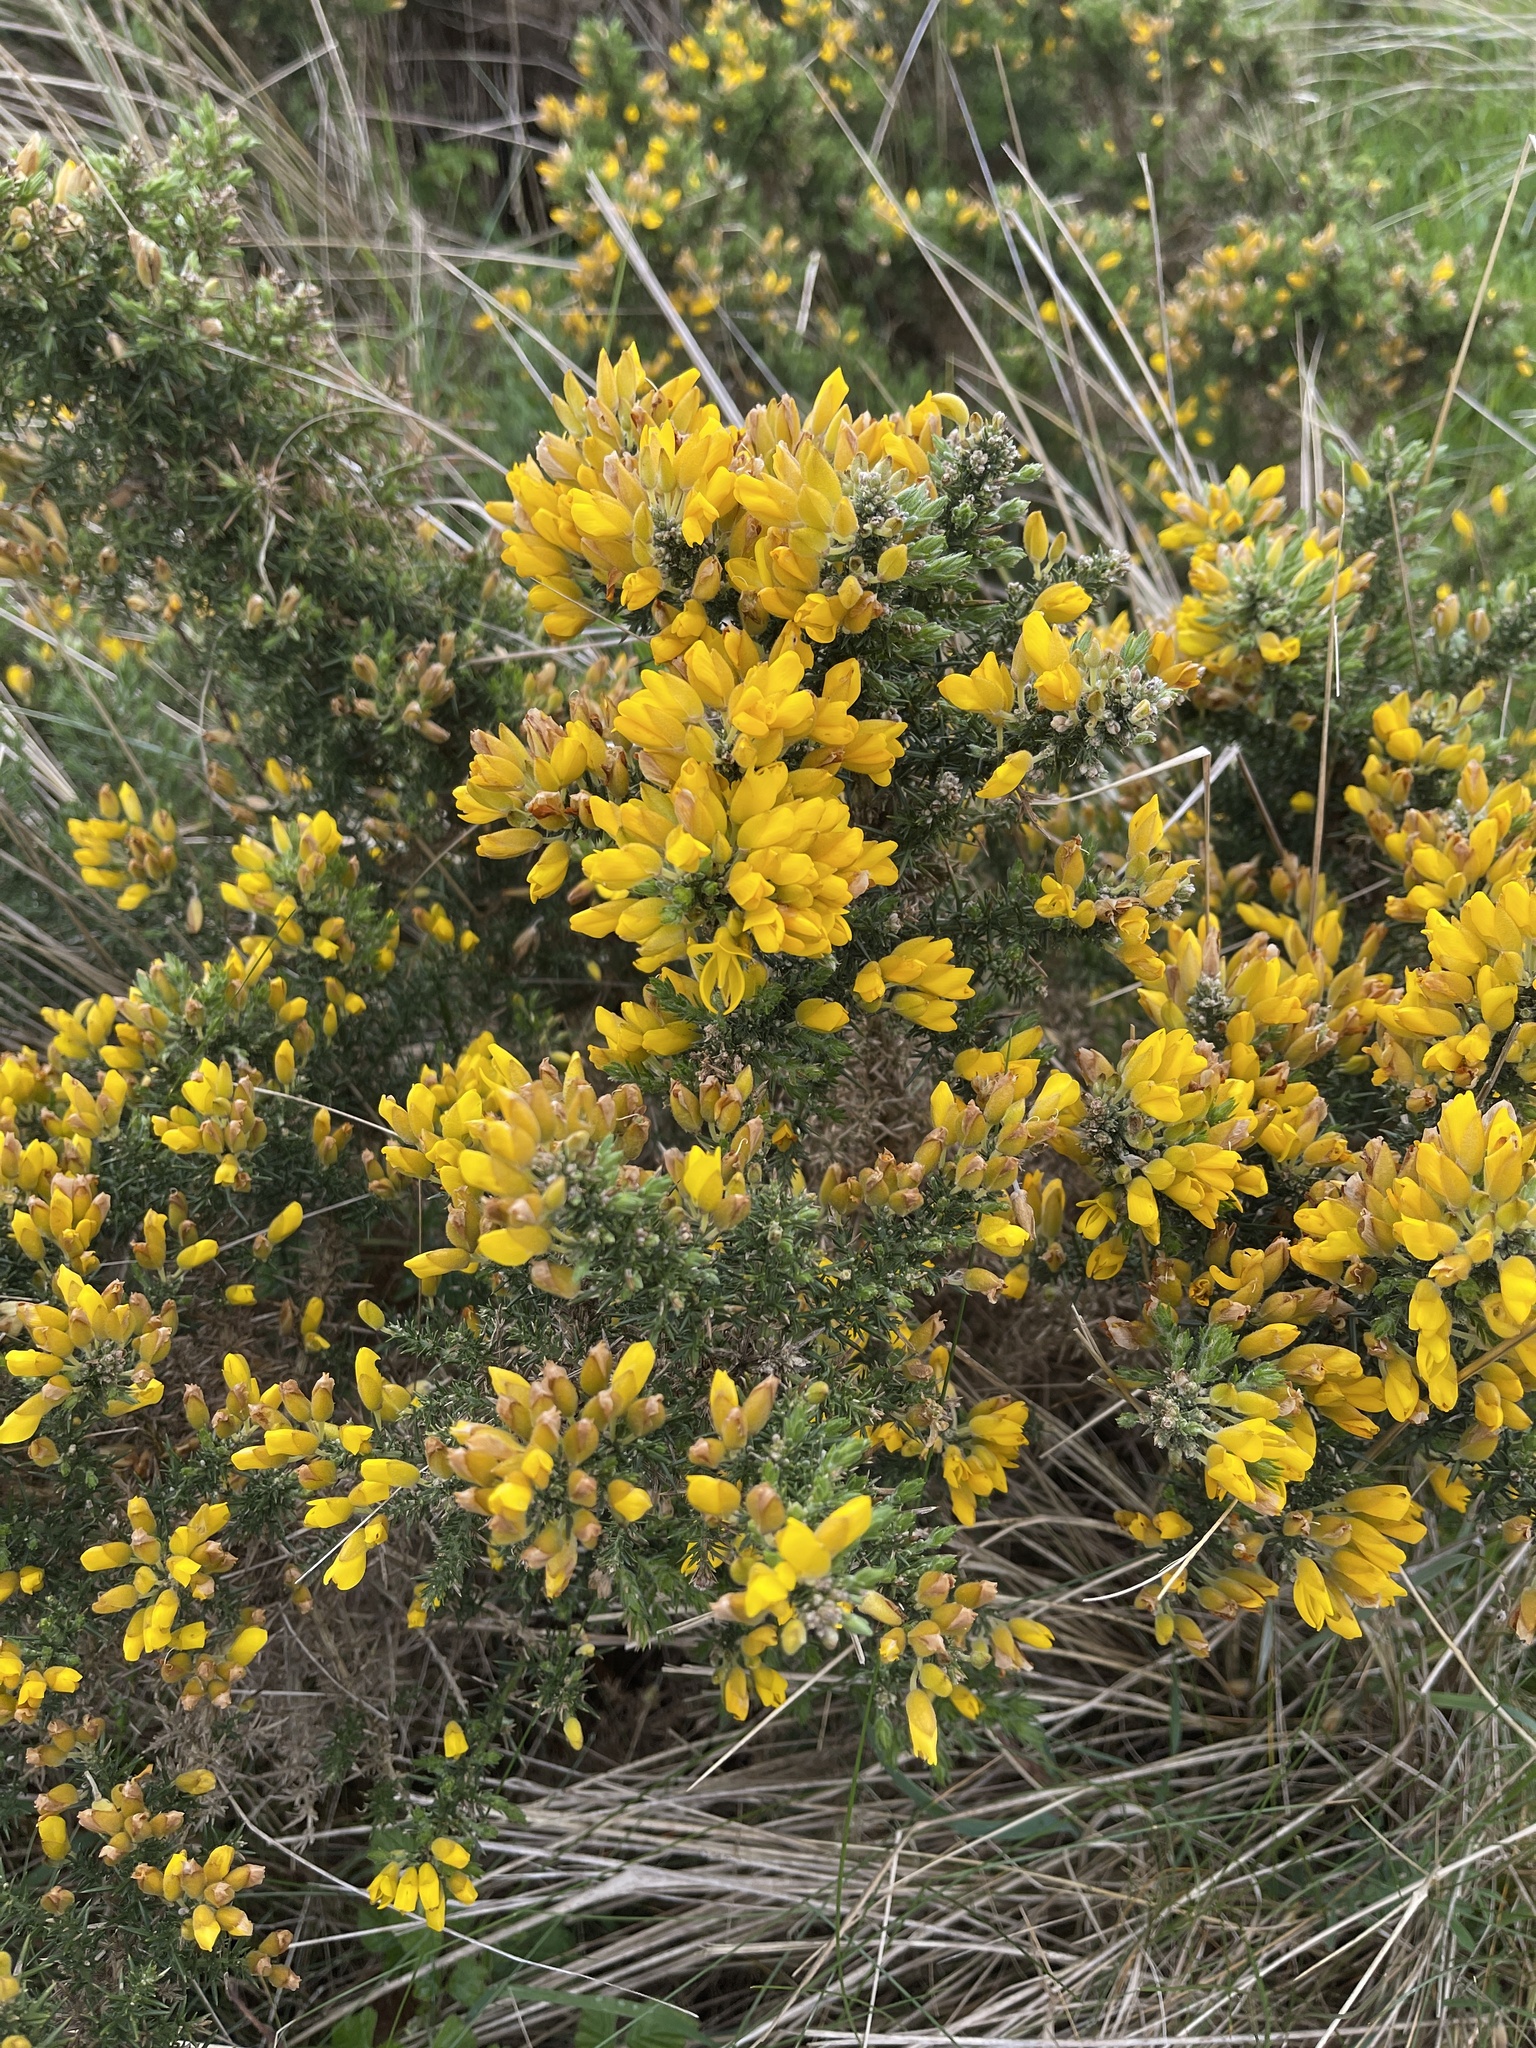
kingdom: Plantae
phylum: Tracheophyta
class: Magnoliopsida
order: Fabales
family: Fabaceae
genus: Ulex
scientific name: Ulex europaeus
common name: Common gorse
